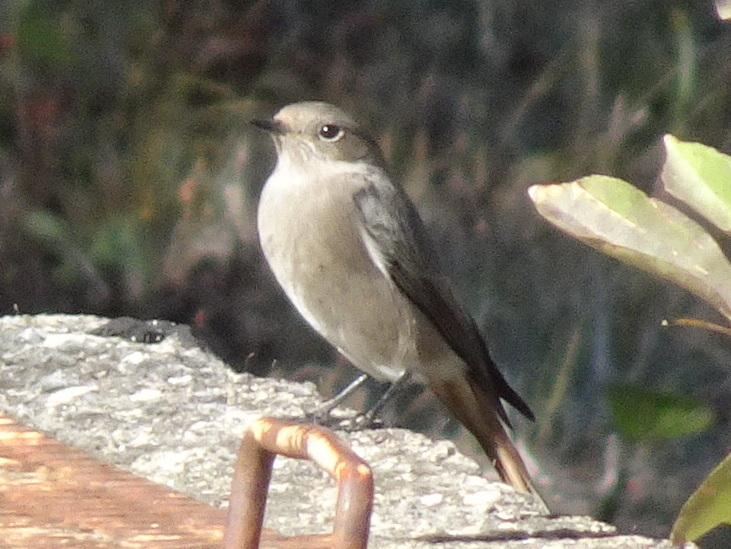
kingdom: Animalia
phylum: Chordata
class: Aves
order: Passeriformes
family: Muscicapidae
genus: Phoenicurus
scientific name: Phoenicurus ochruros
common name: Black redstart
